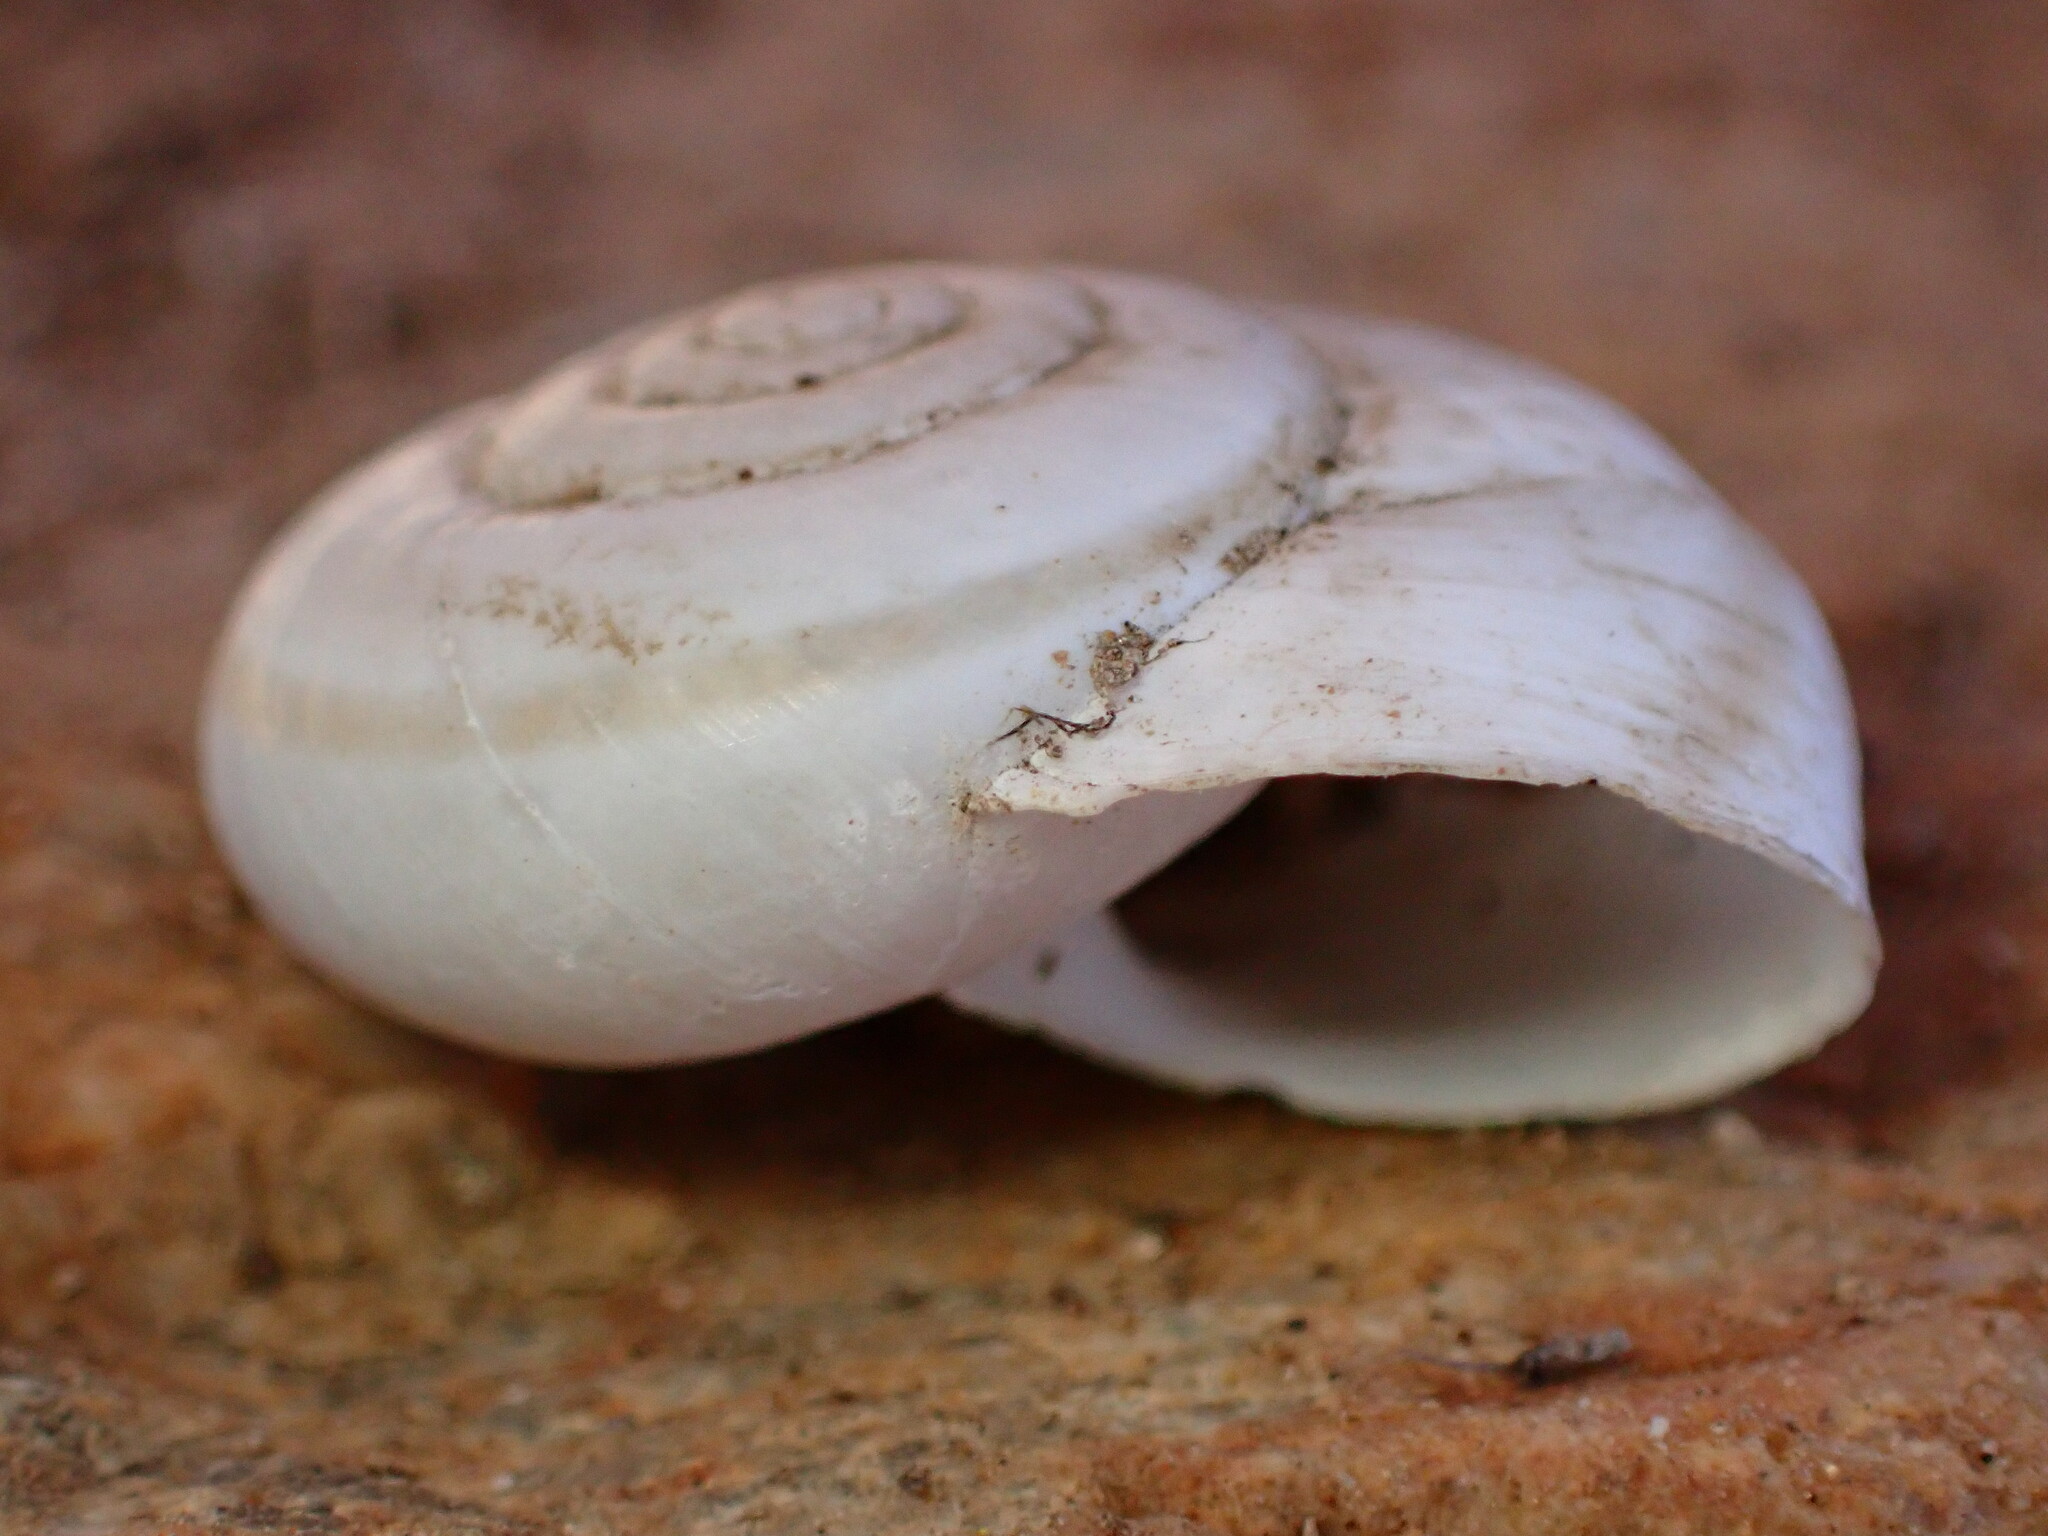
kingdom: Animalia
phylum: Mollusca
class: Gastropoda
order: Stylommatophora
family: Xanthonychidae
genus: Sonorelix
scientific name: Sonorelix borregoensis
